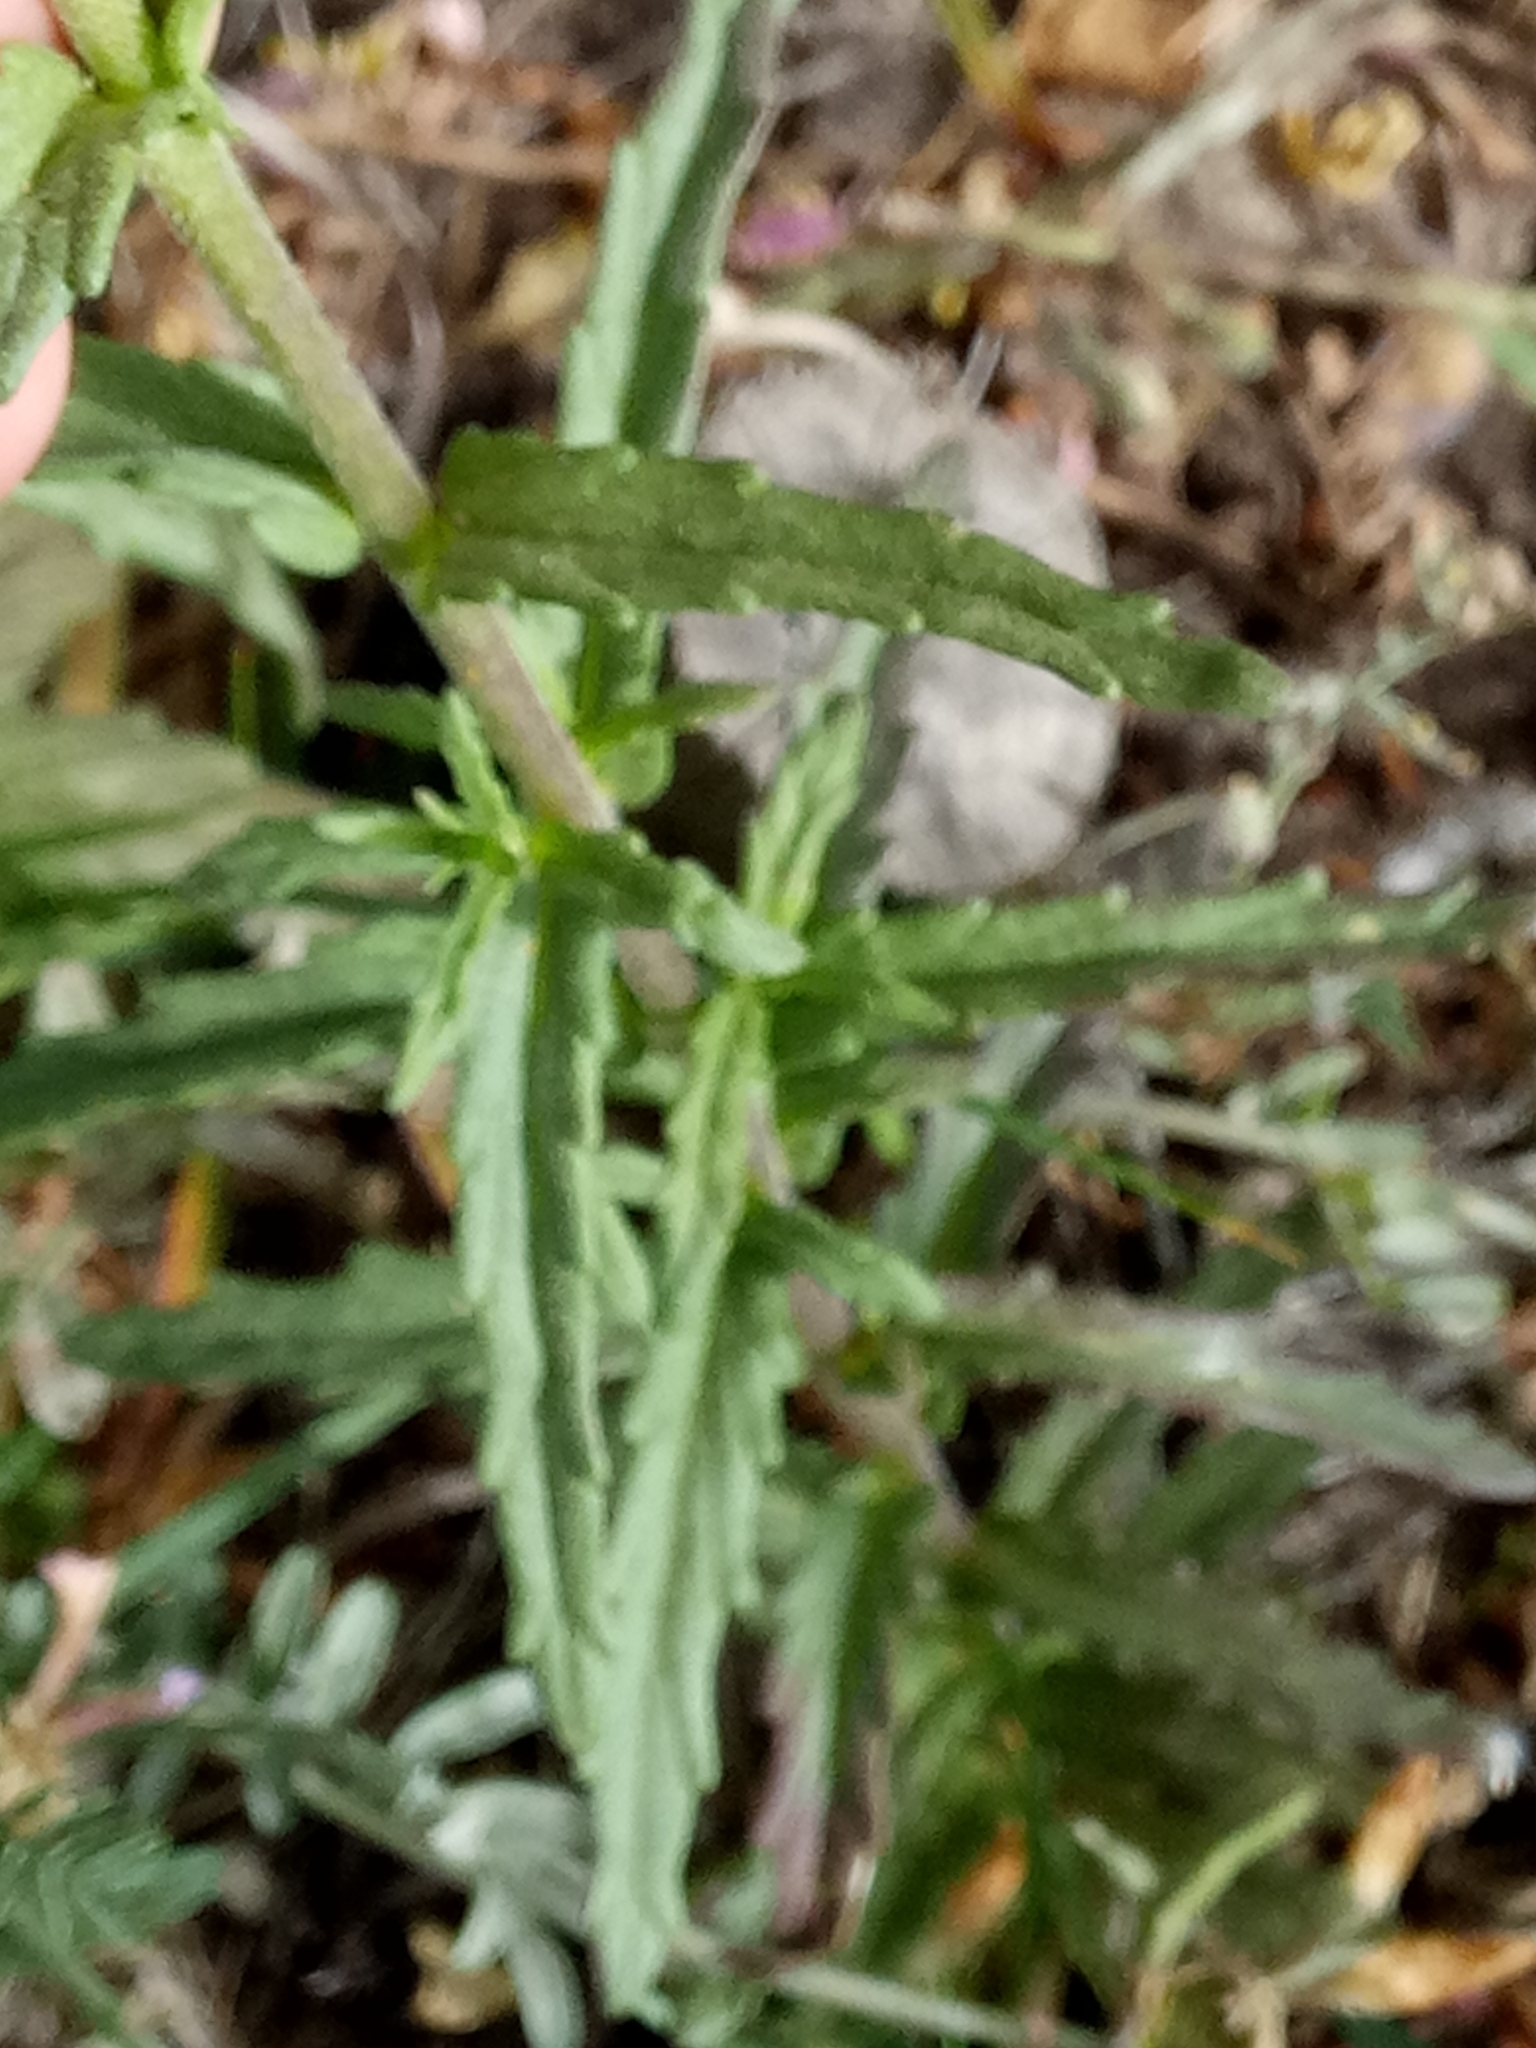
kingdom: Plantae
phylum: Tracheophyta
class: Magnoliopsida
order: Lamiales
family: Orobanchaceae
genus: Bellardia
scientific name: Bellardia trixago
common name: Mediterranean lineseed
